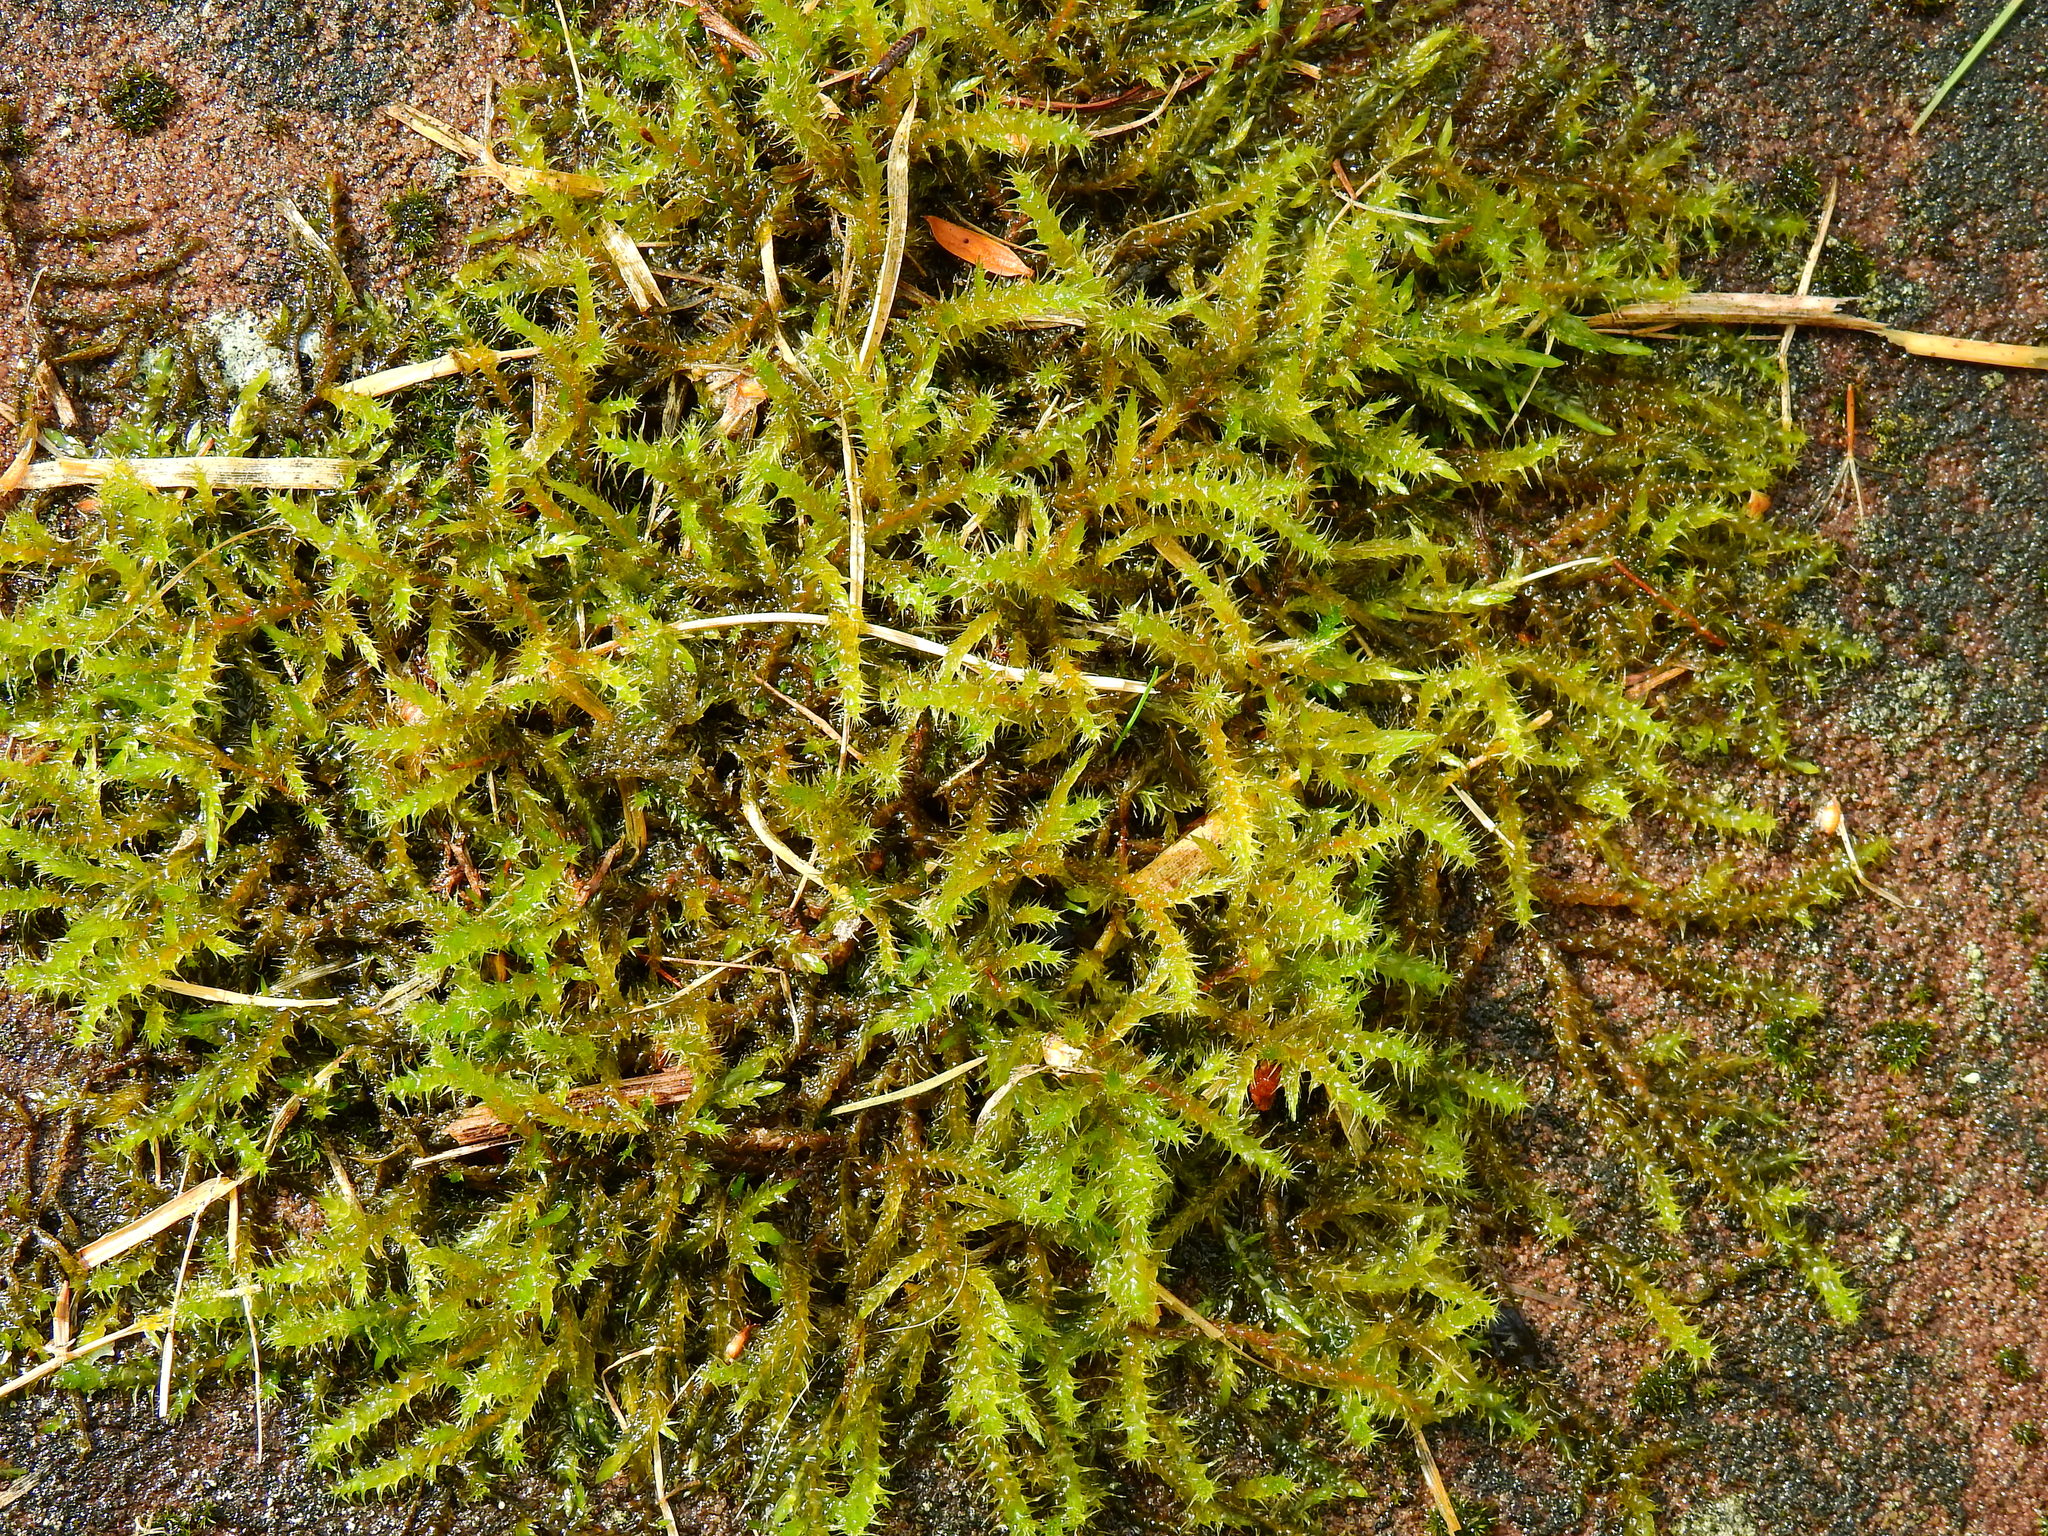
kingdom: Plantae
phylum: Bryophyta
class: Bryopsida
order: Hypnales
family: Pylaisiaceae
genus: Calliergonella
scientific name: Calliergonella cuspidata
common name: Common large wetland moss
